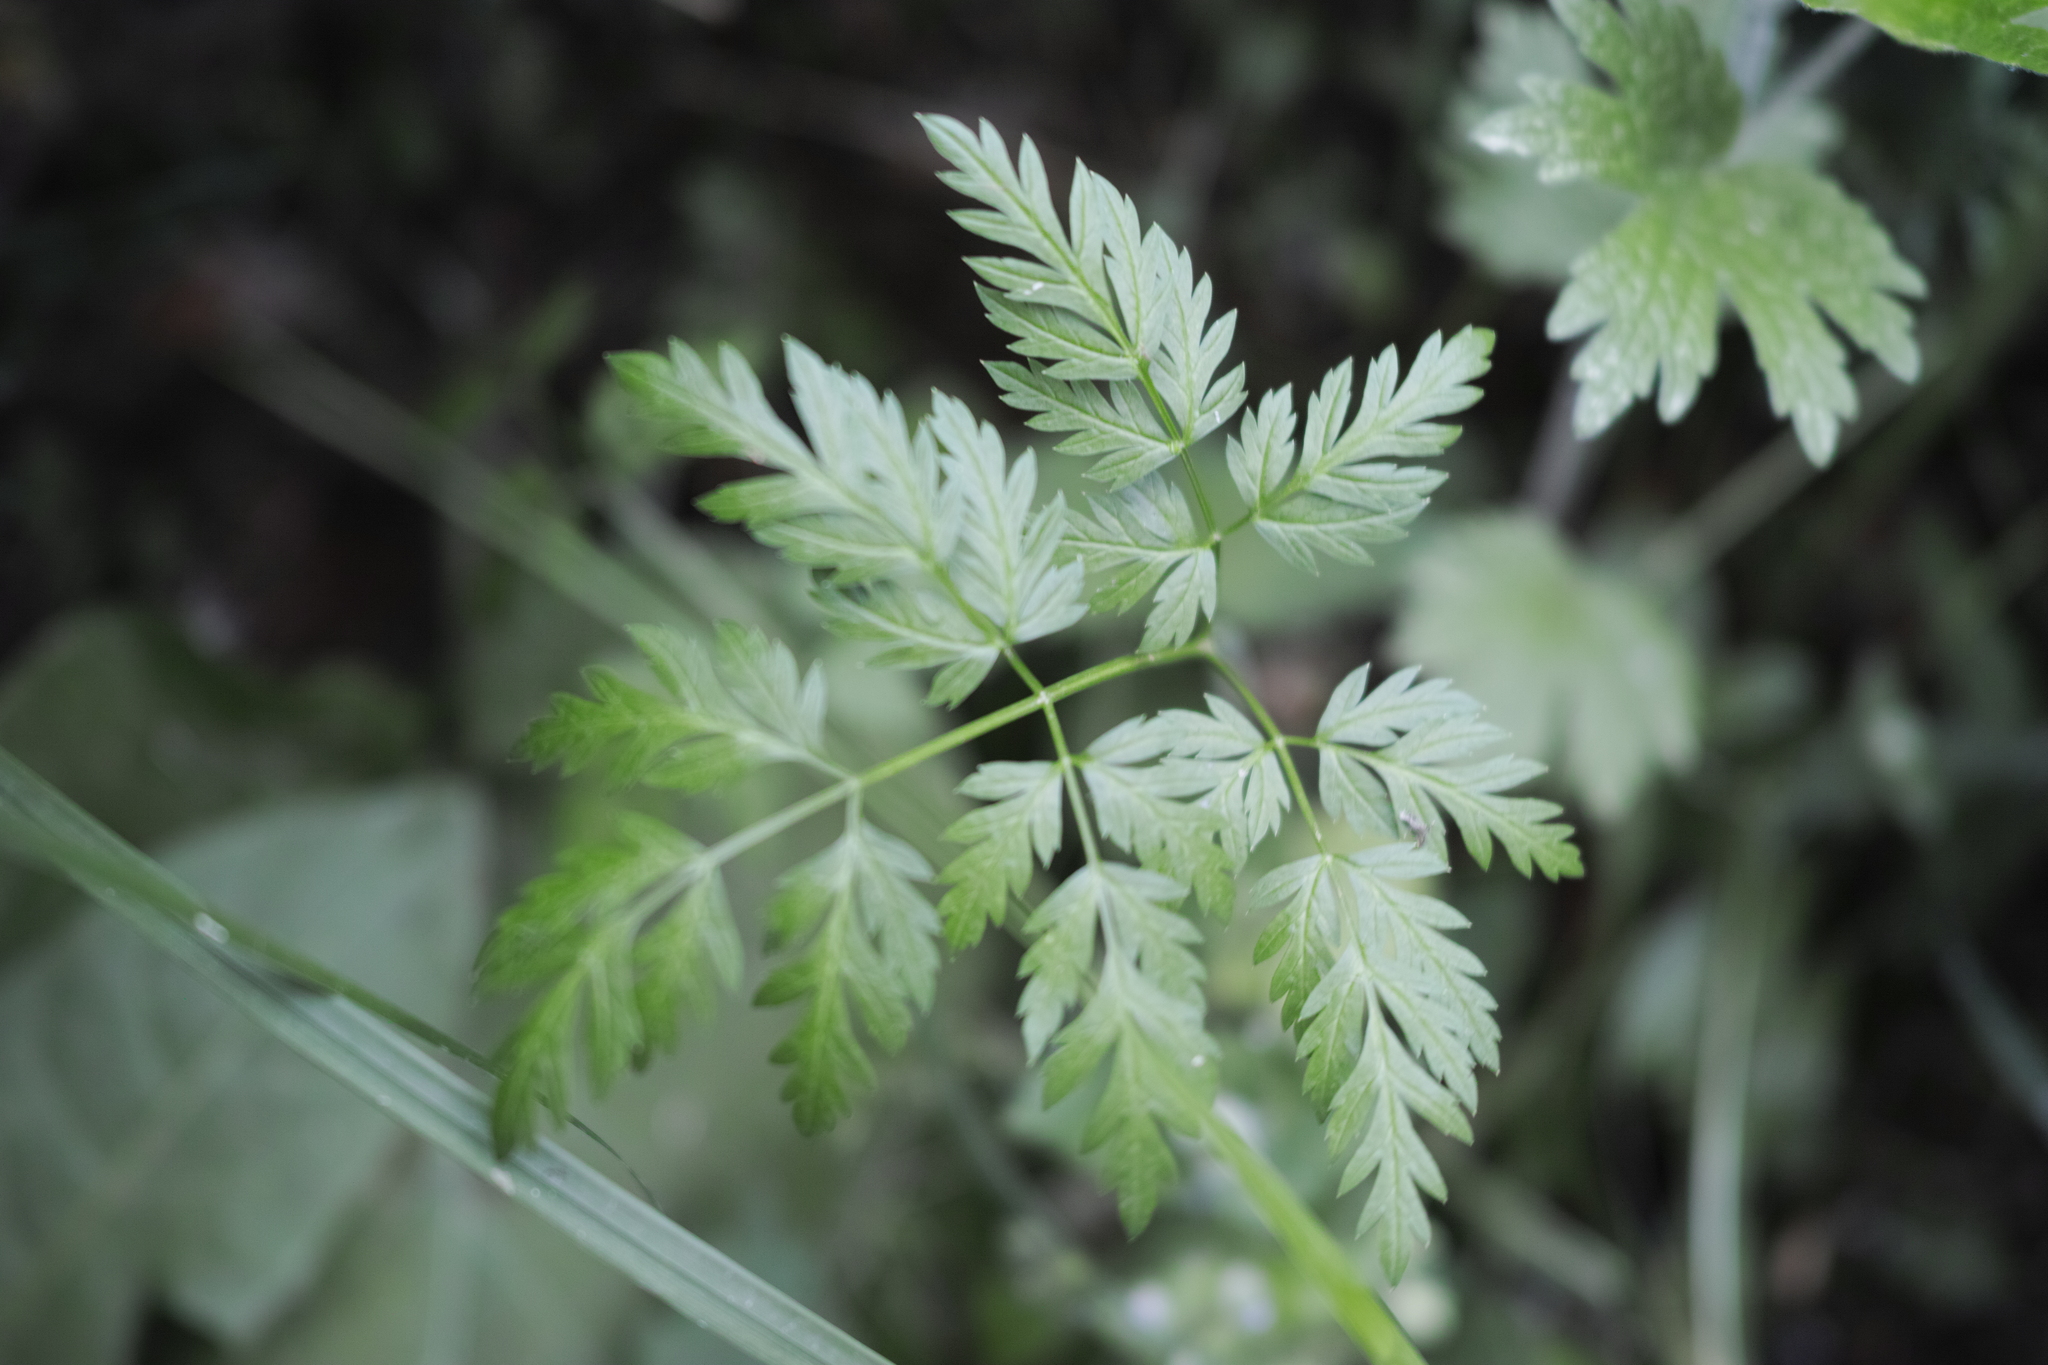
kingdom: Plantae
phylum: Tracheophyta
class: Magnoliopsida
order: Apiales
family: Apiaceae
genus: Anthriscus
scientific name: Anthriscus sylvestris
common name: Cow parsley
